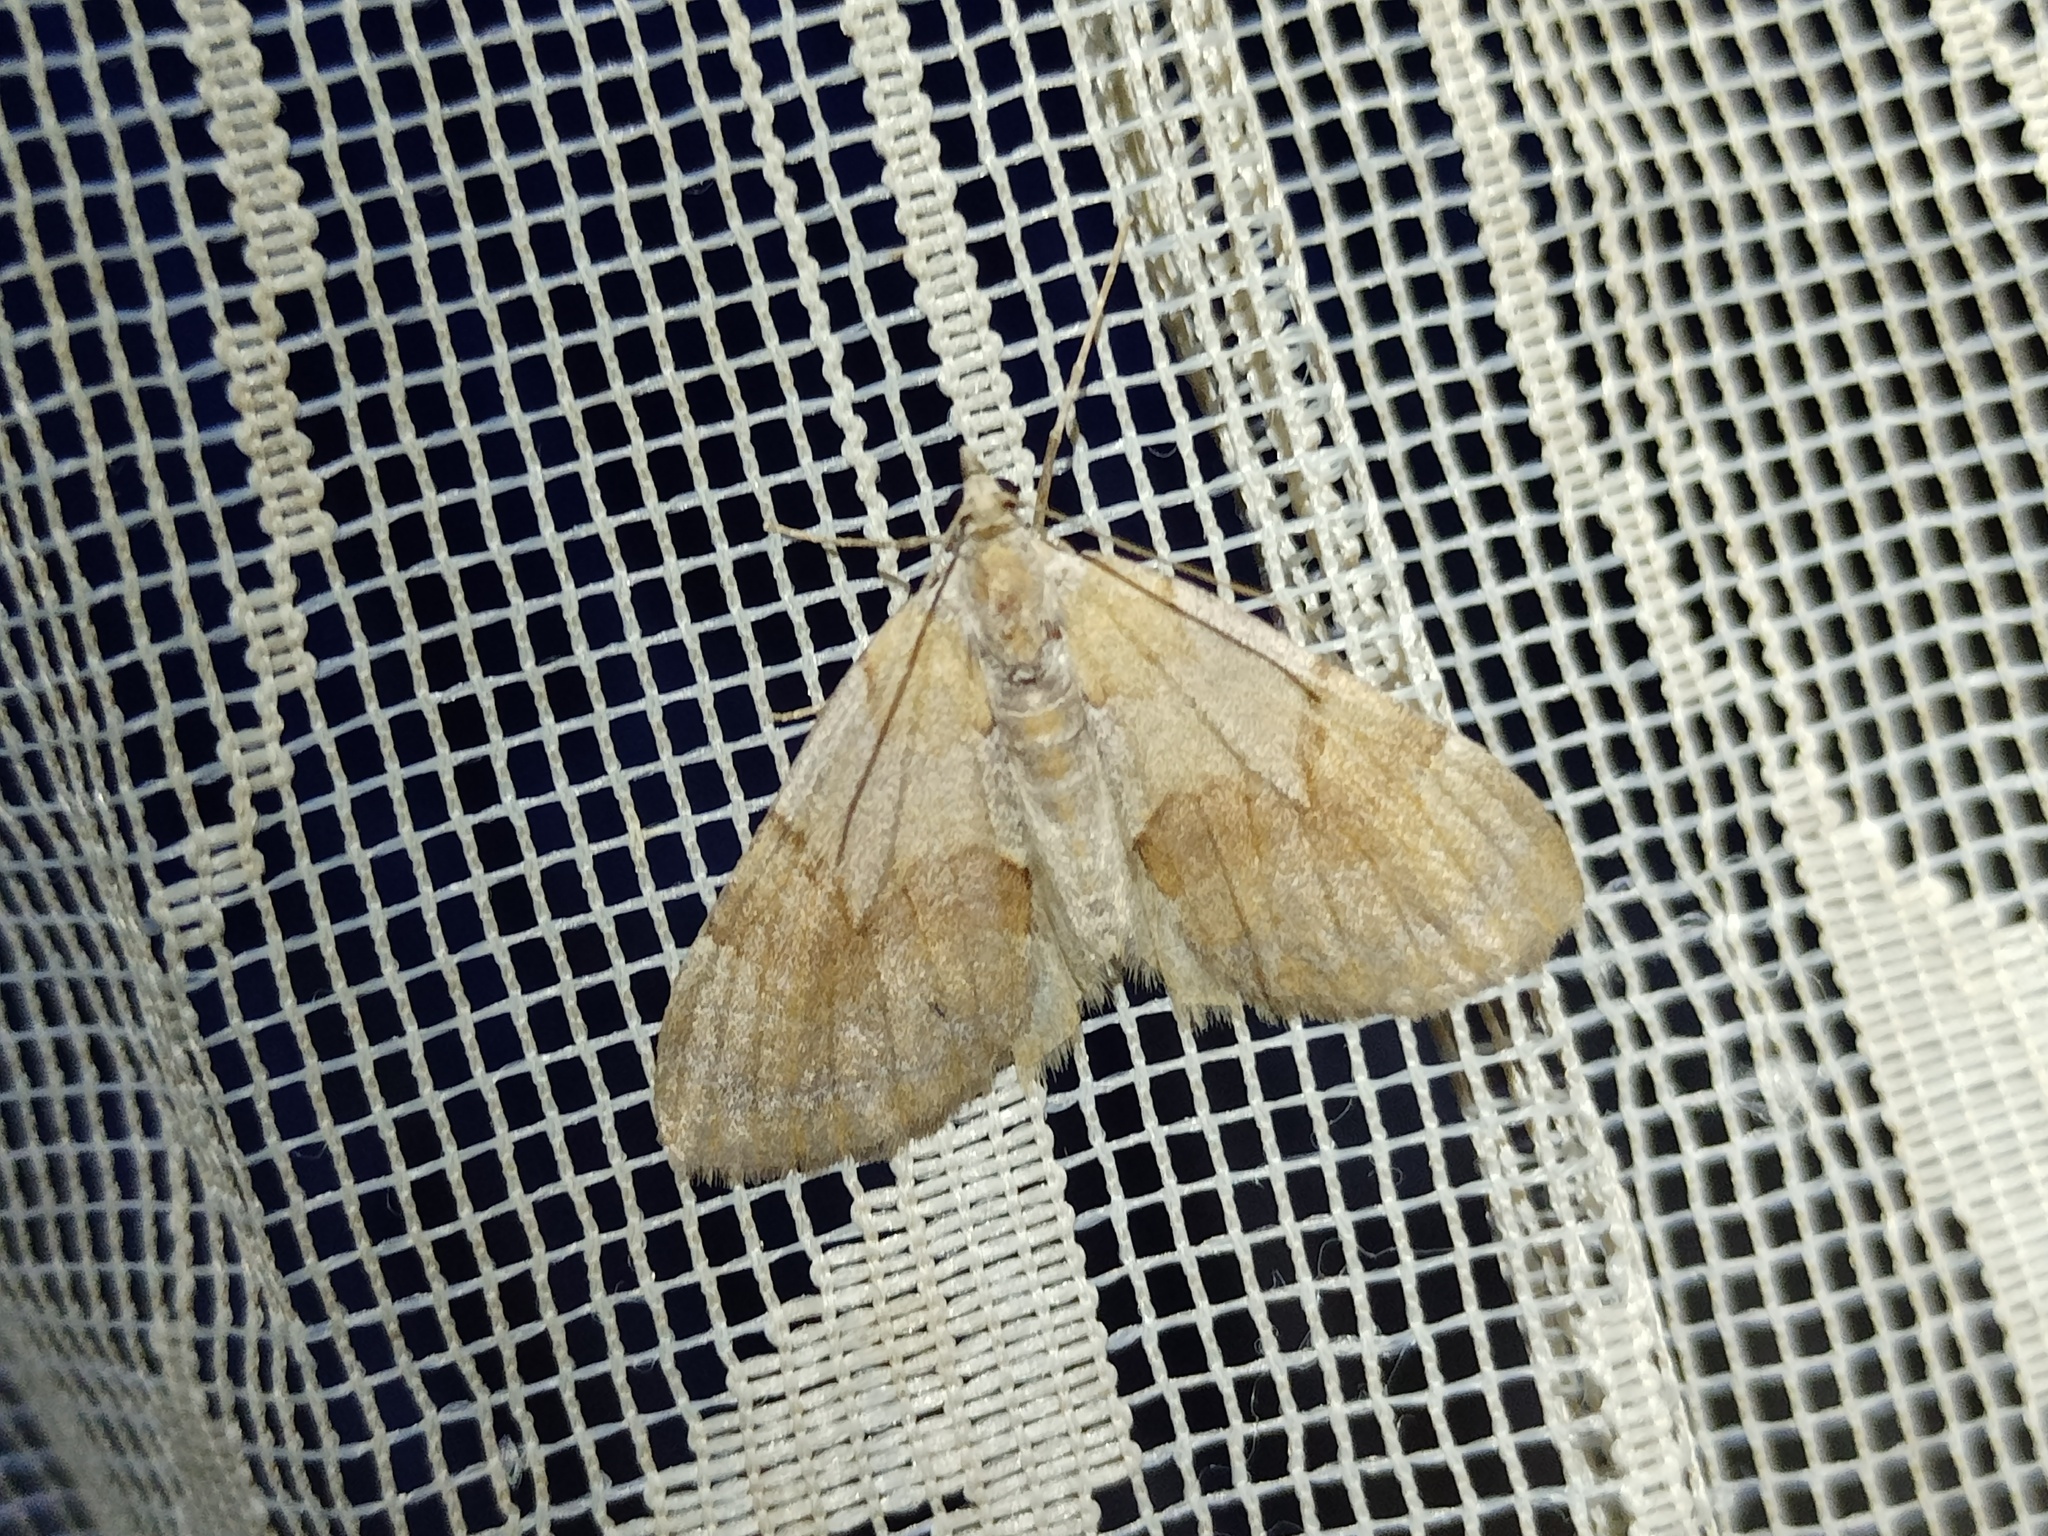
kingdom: Animalia
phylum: Arthropoda
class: Insecta
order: Lepidoptera
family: Geometridae
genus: Pennithera
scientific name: Pennithera firmata
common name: Pine carpet
